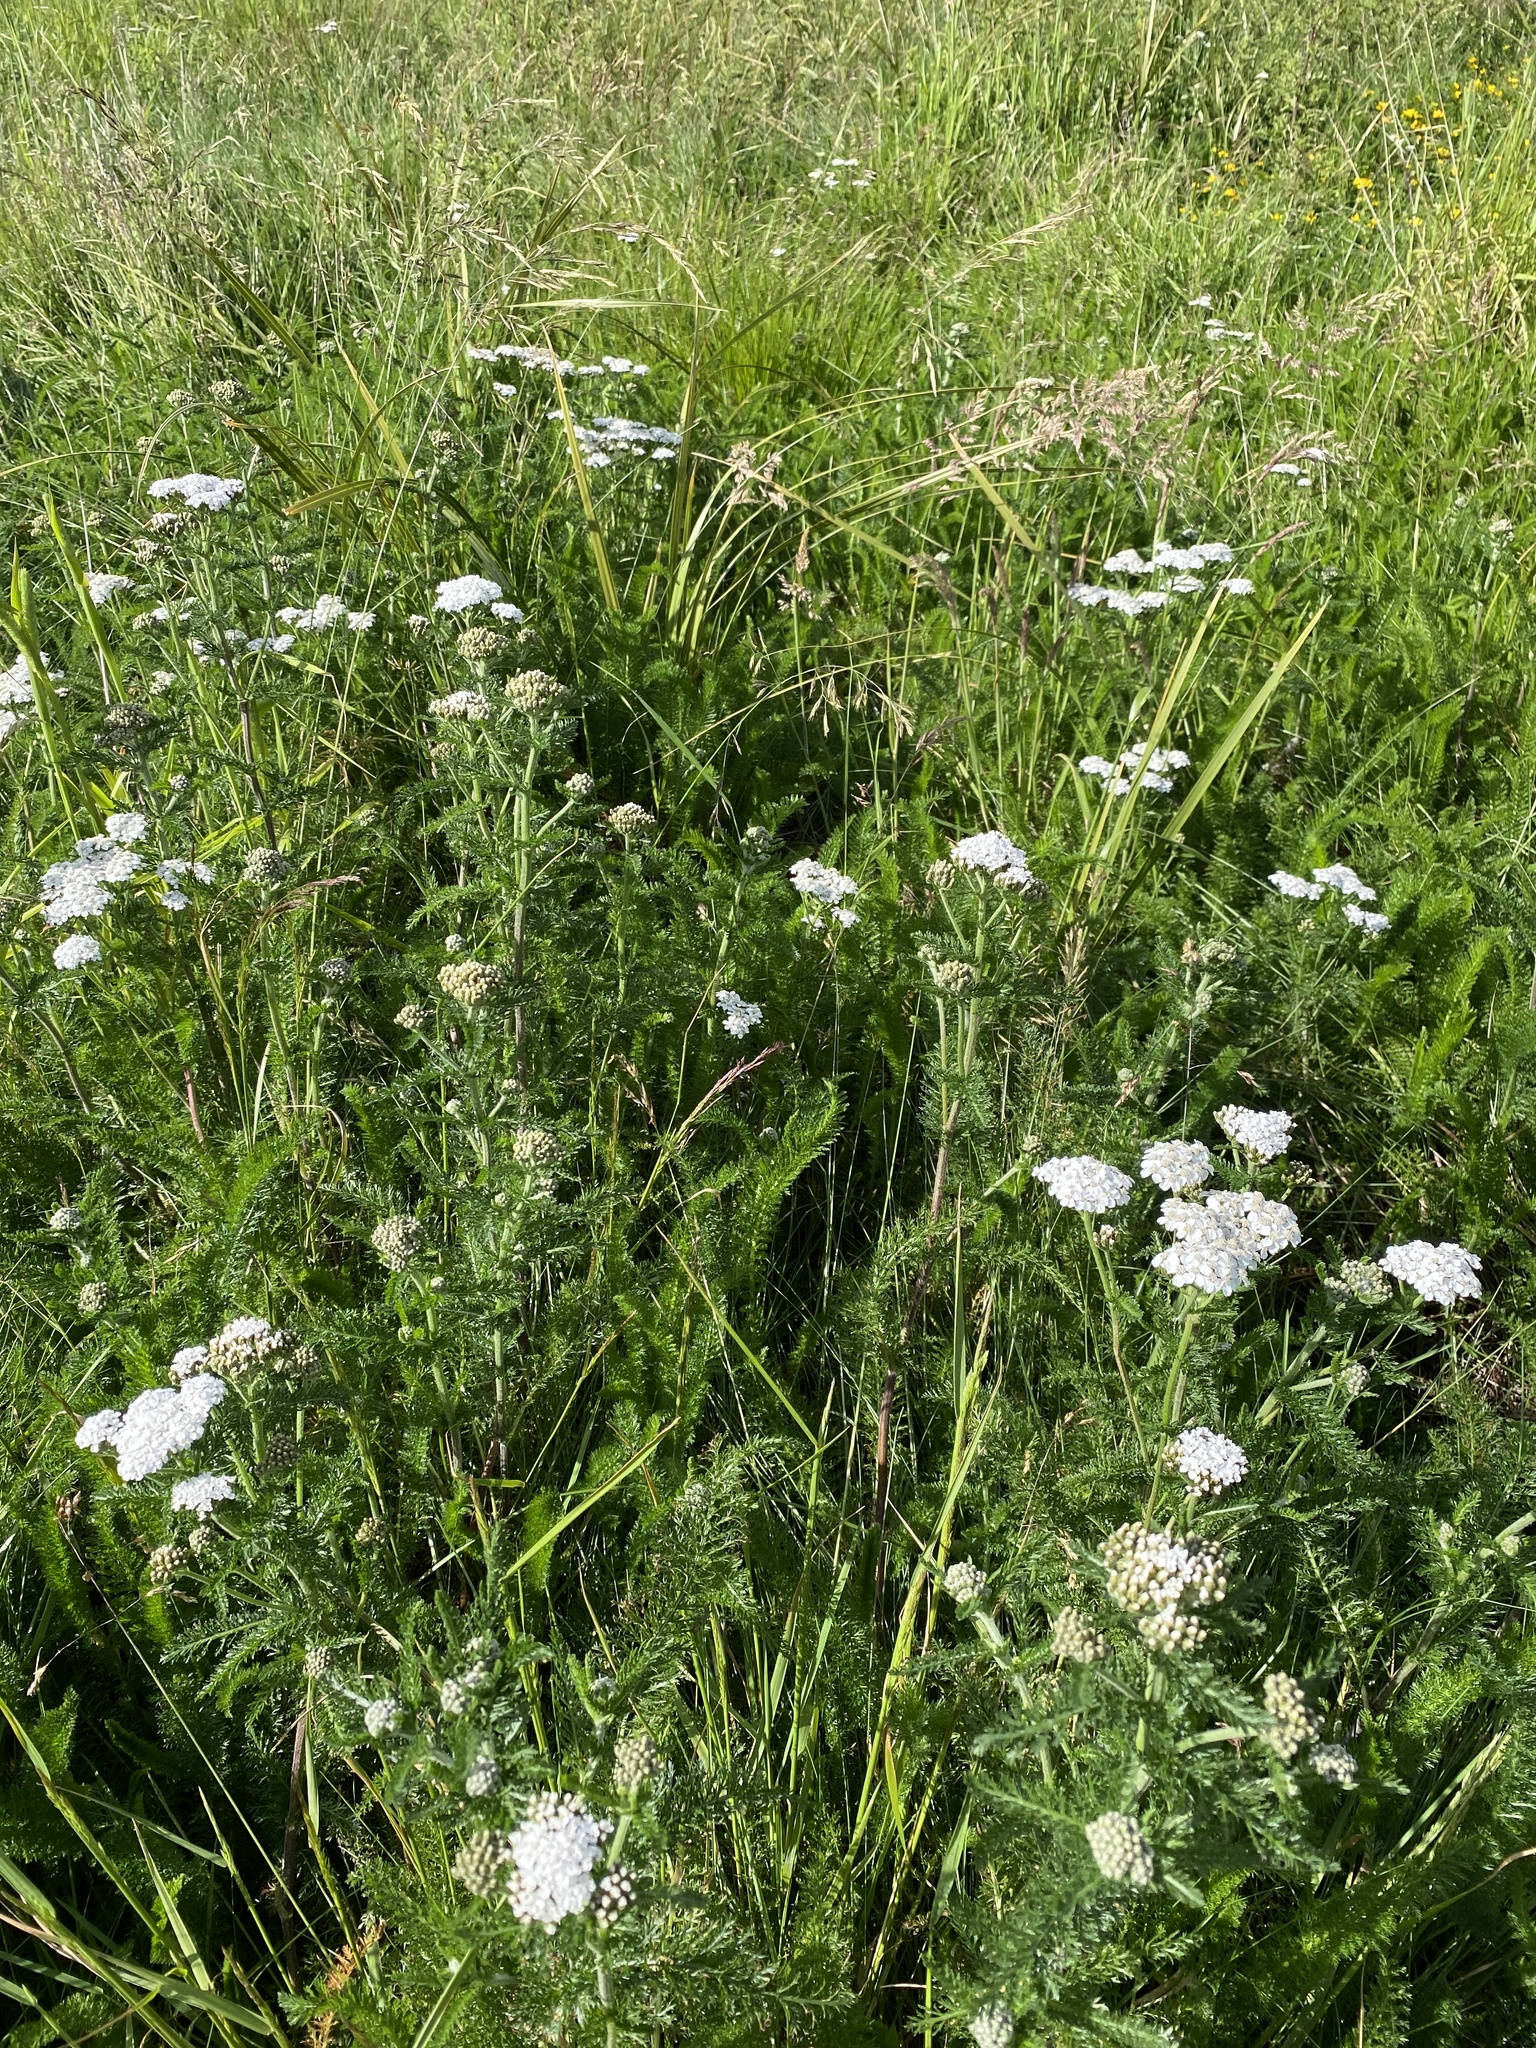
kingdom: Plantae
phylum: Tracheophyta
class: Magnoliopsida
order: Asterales
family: Asteraceae
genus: Achillea
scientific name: Achillea millefolium
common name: Yarrow
